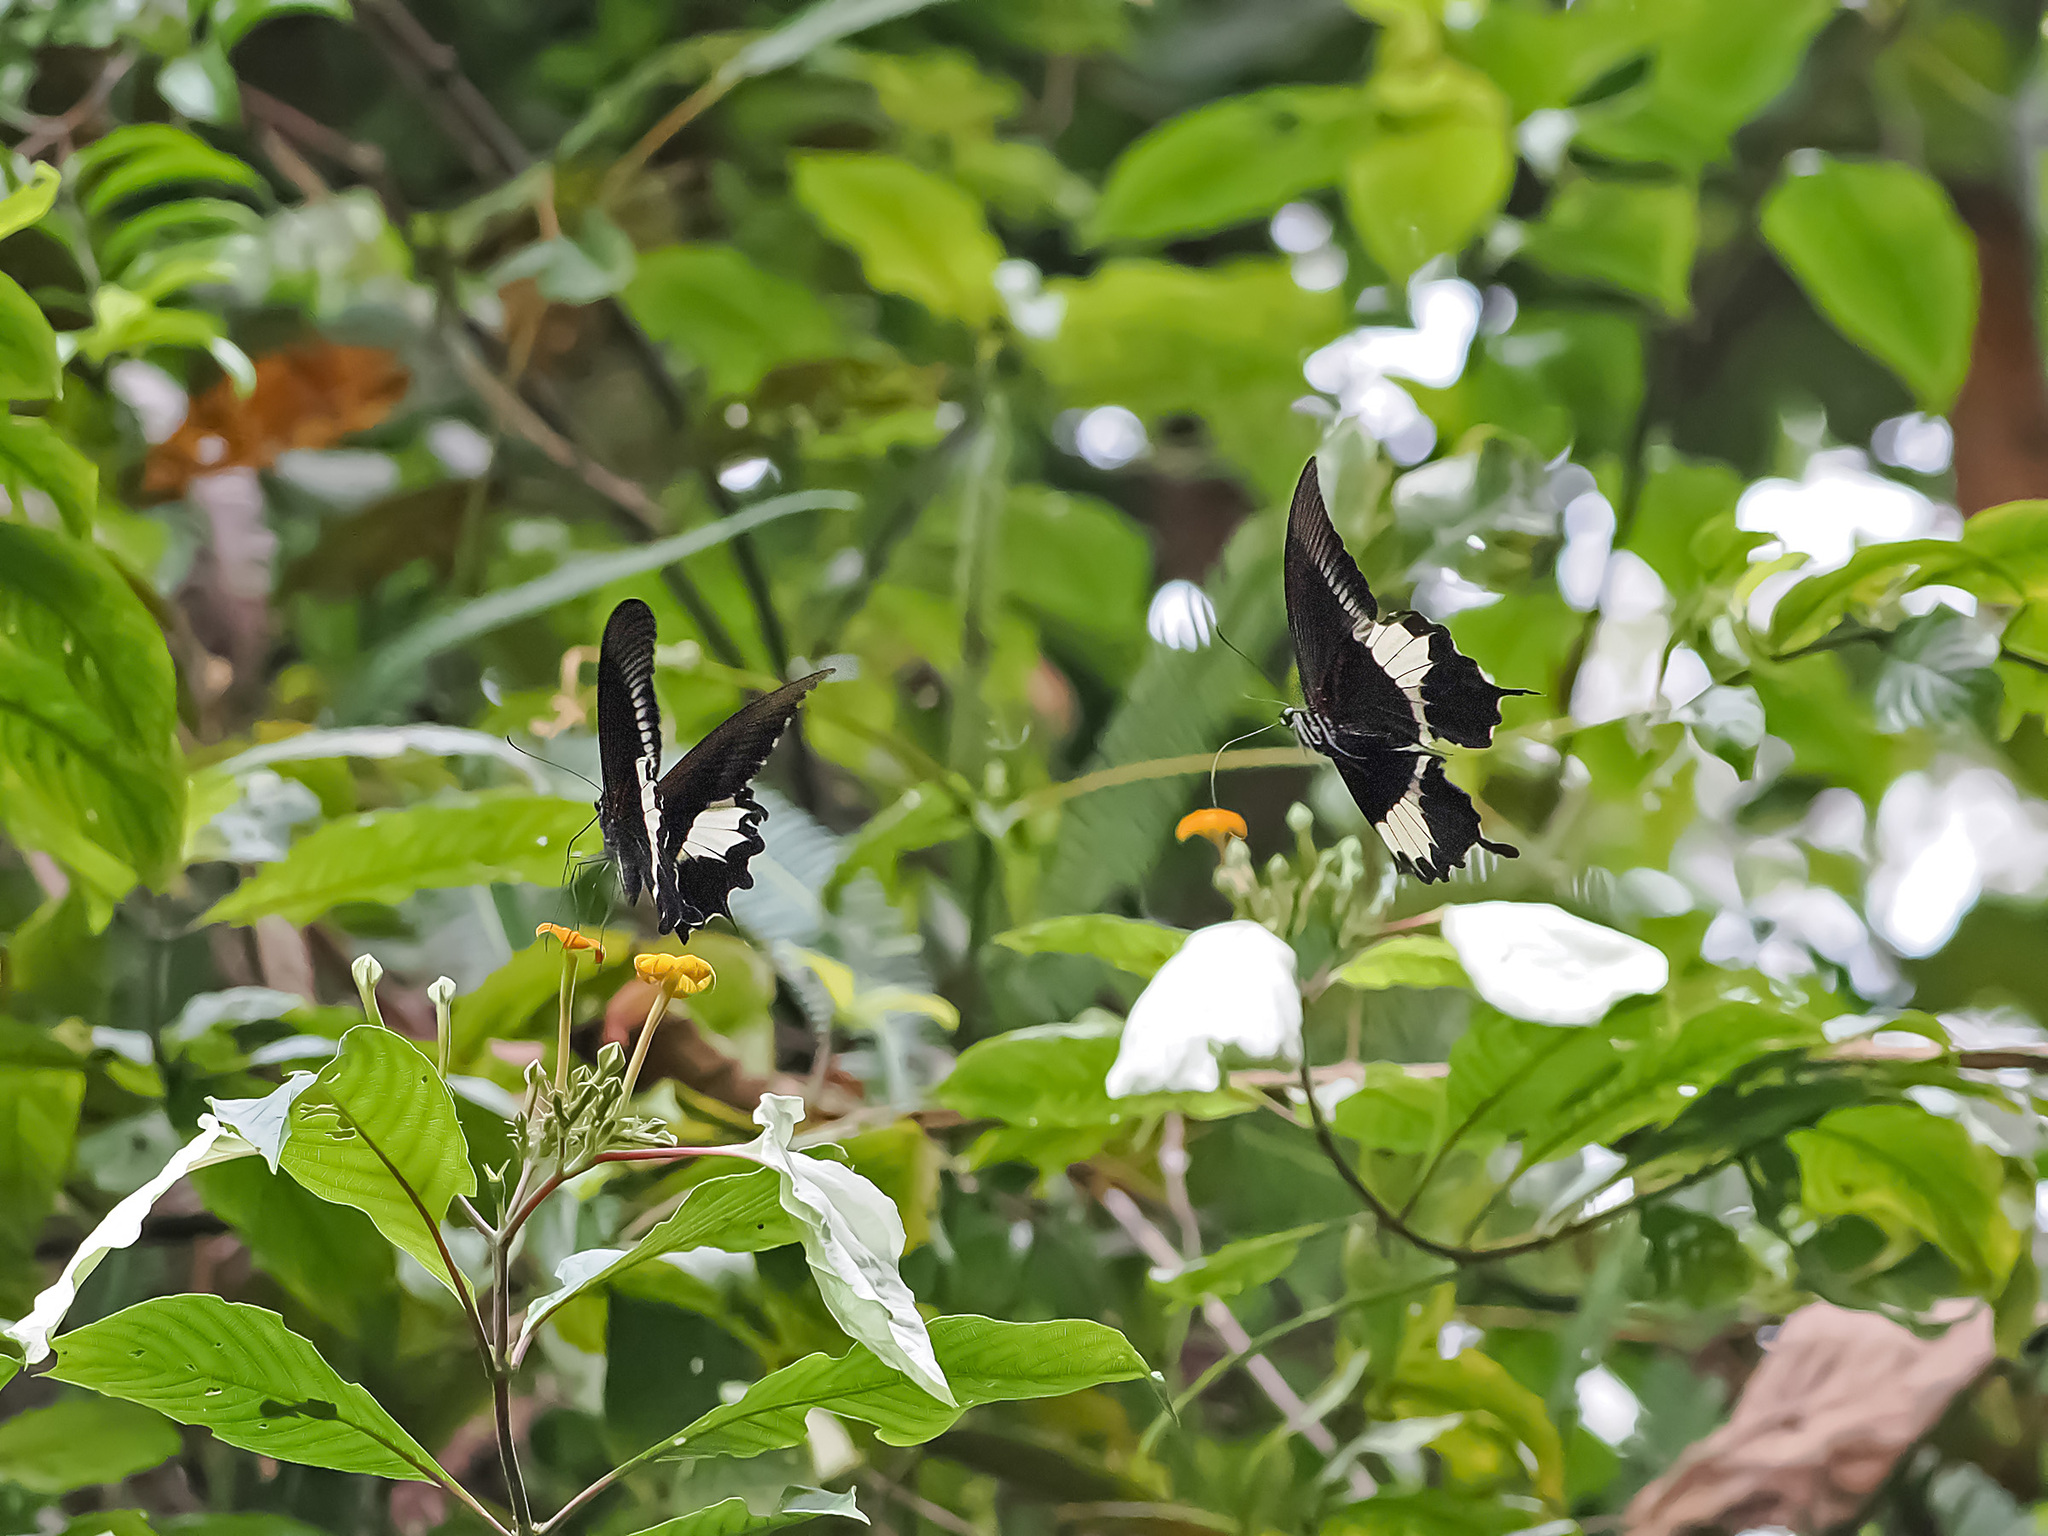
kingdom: Animalia
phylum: Arthropoda
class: Insecta
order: Lepidoptera
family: Papilionidae
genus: Papilio
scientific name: Papilio diophantus
